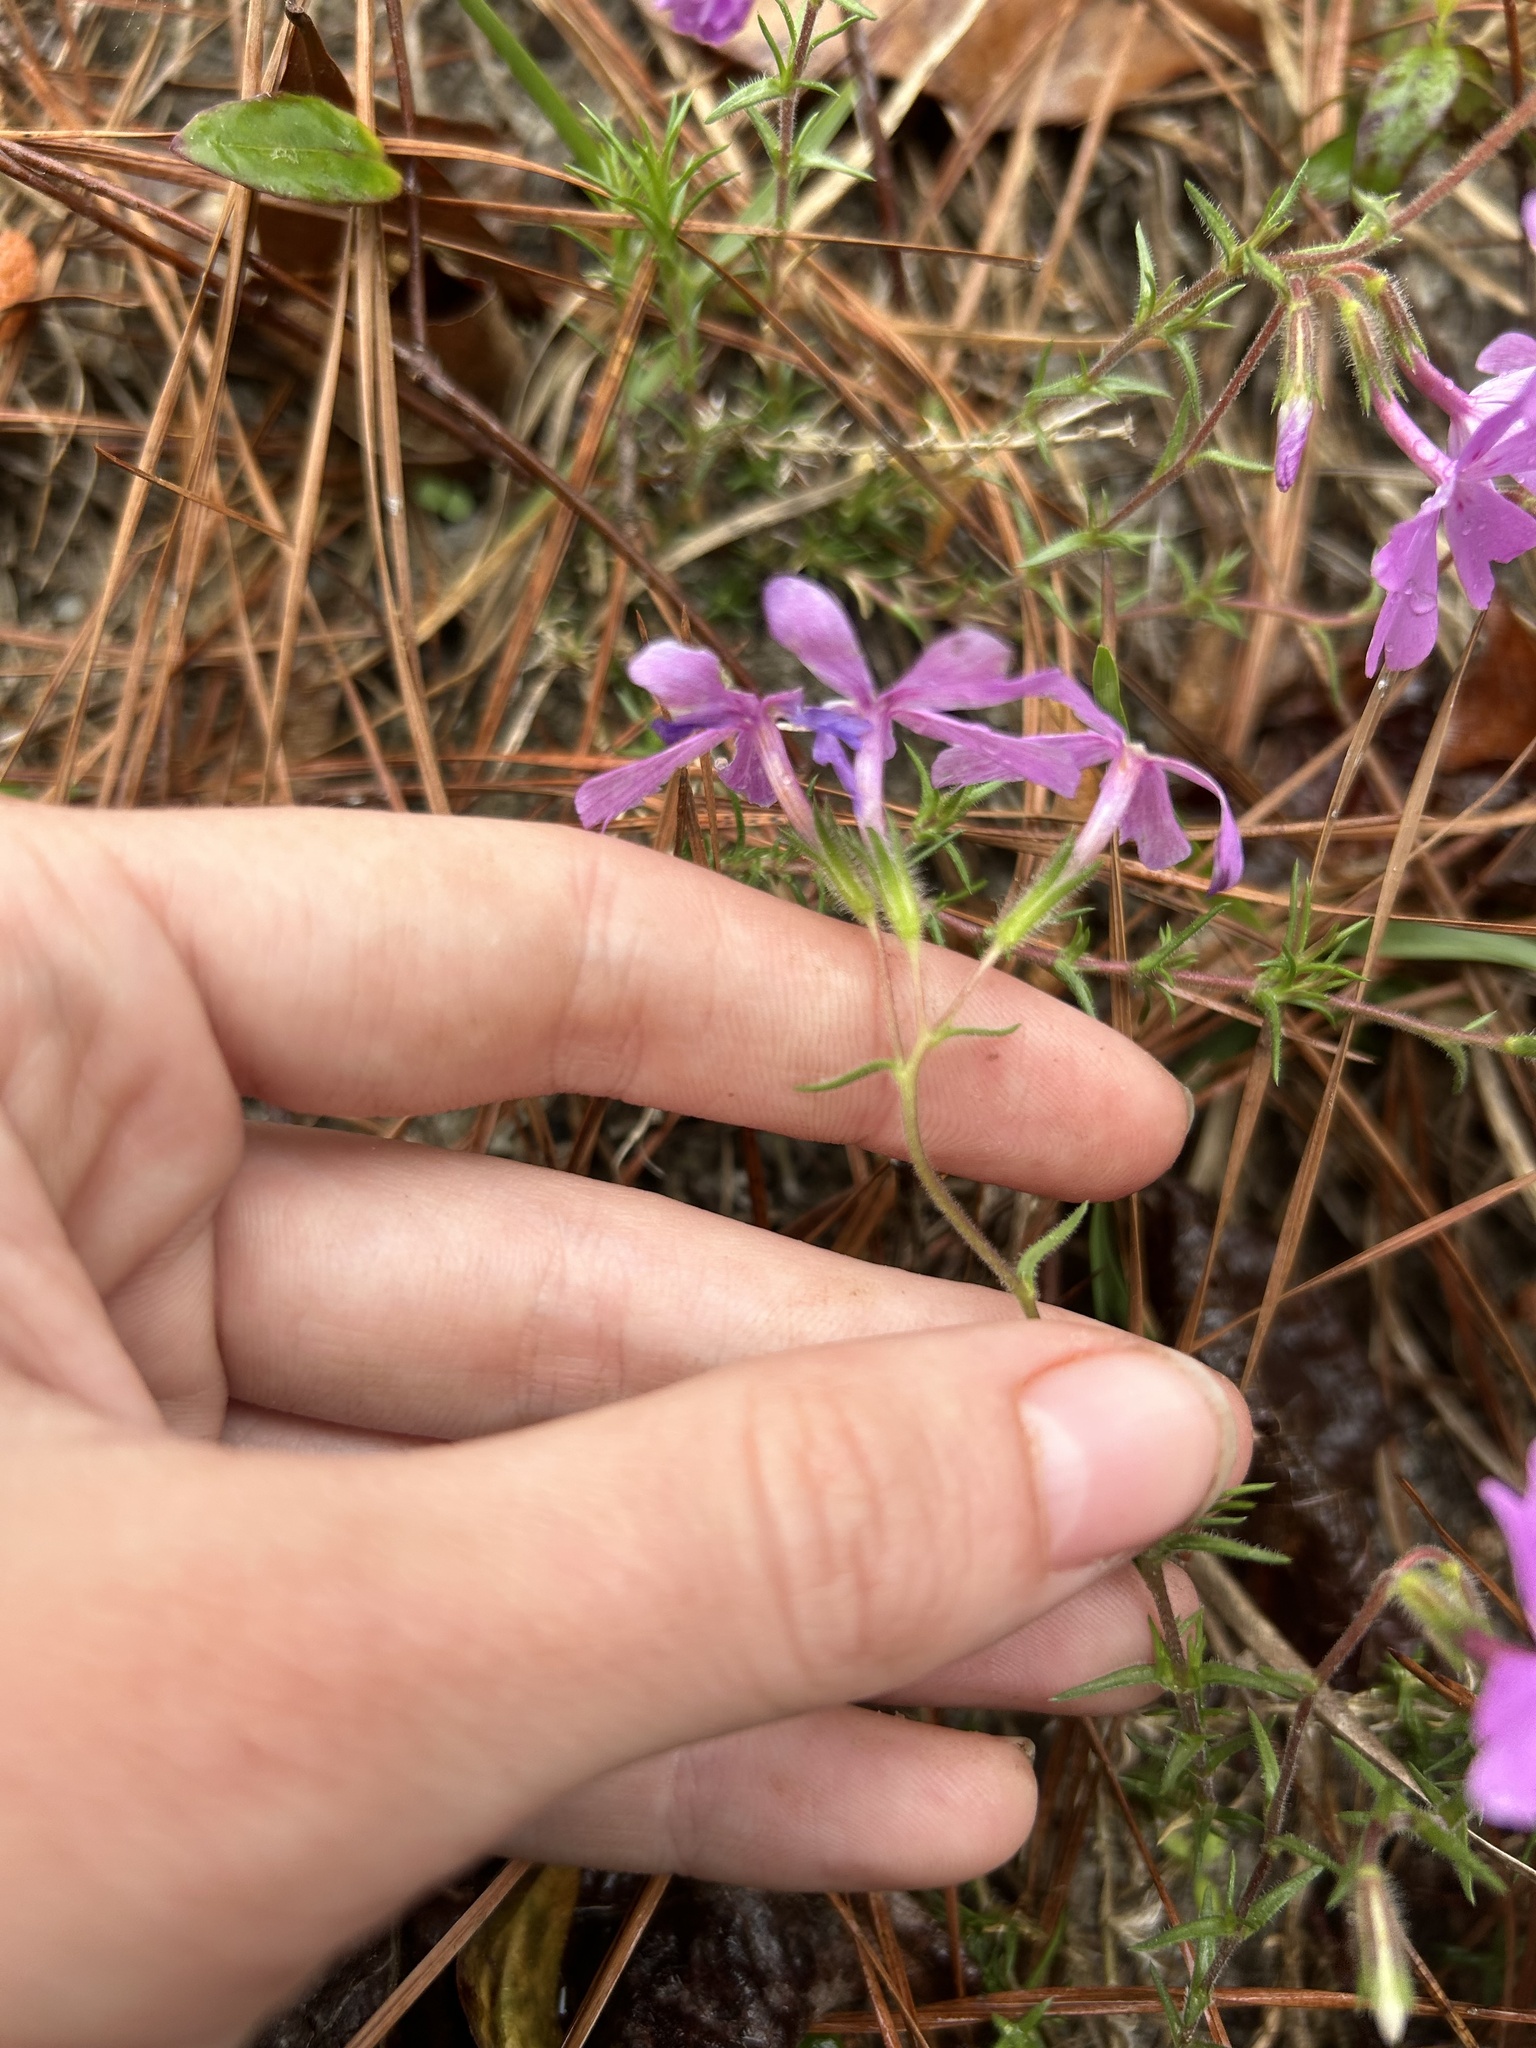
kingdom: Plantae
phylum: Tracheophyta
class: Magnoliopsida
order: Ericales
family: Polemoniaceae
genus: Phlox
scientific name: Phlox nivalis
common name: Trailing phlox
